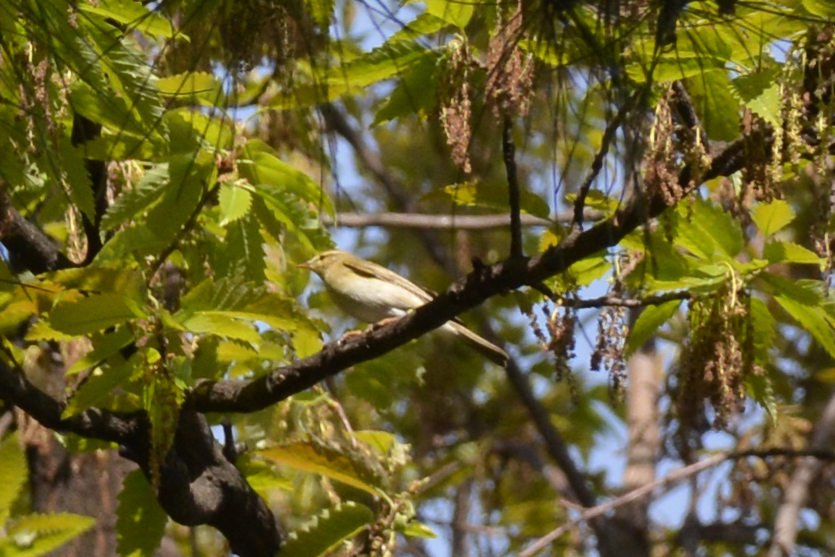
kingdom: Animalia
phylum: Chordata
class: Aves
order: Passeriformes
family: Phylloscopidae
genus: Phylloscopus
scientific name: Phylloscopus trochilus
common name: Willow warbler
